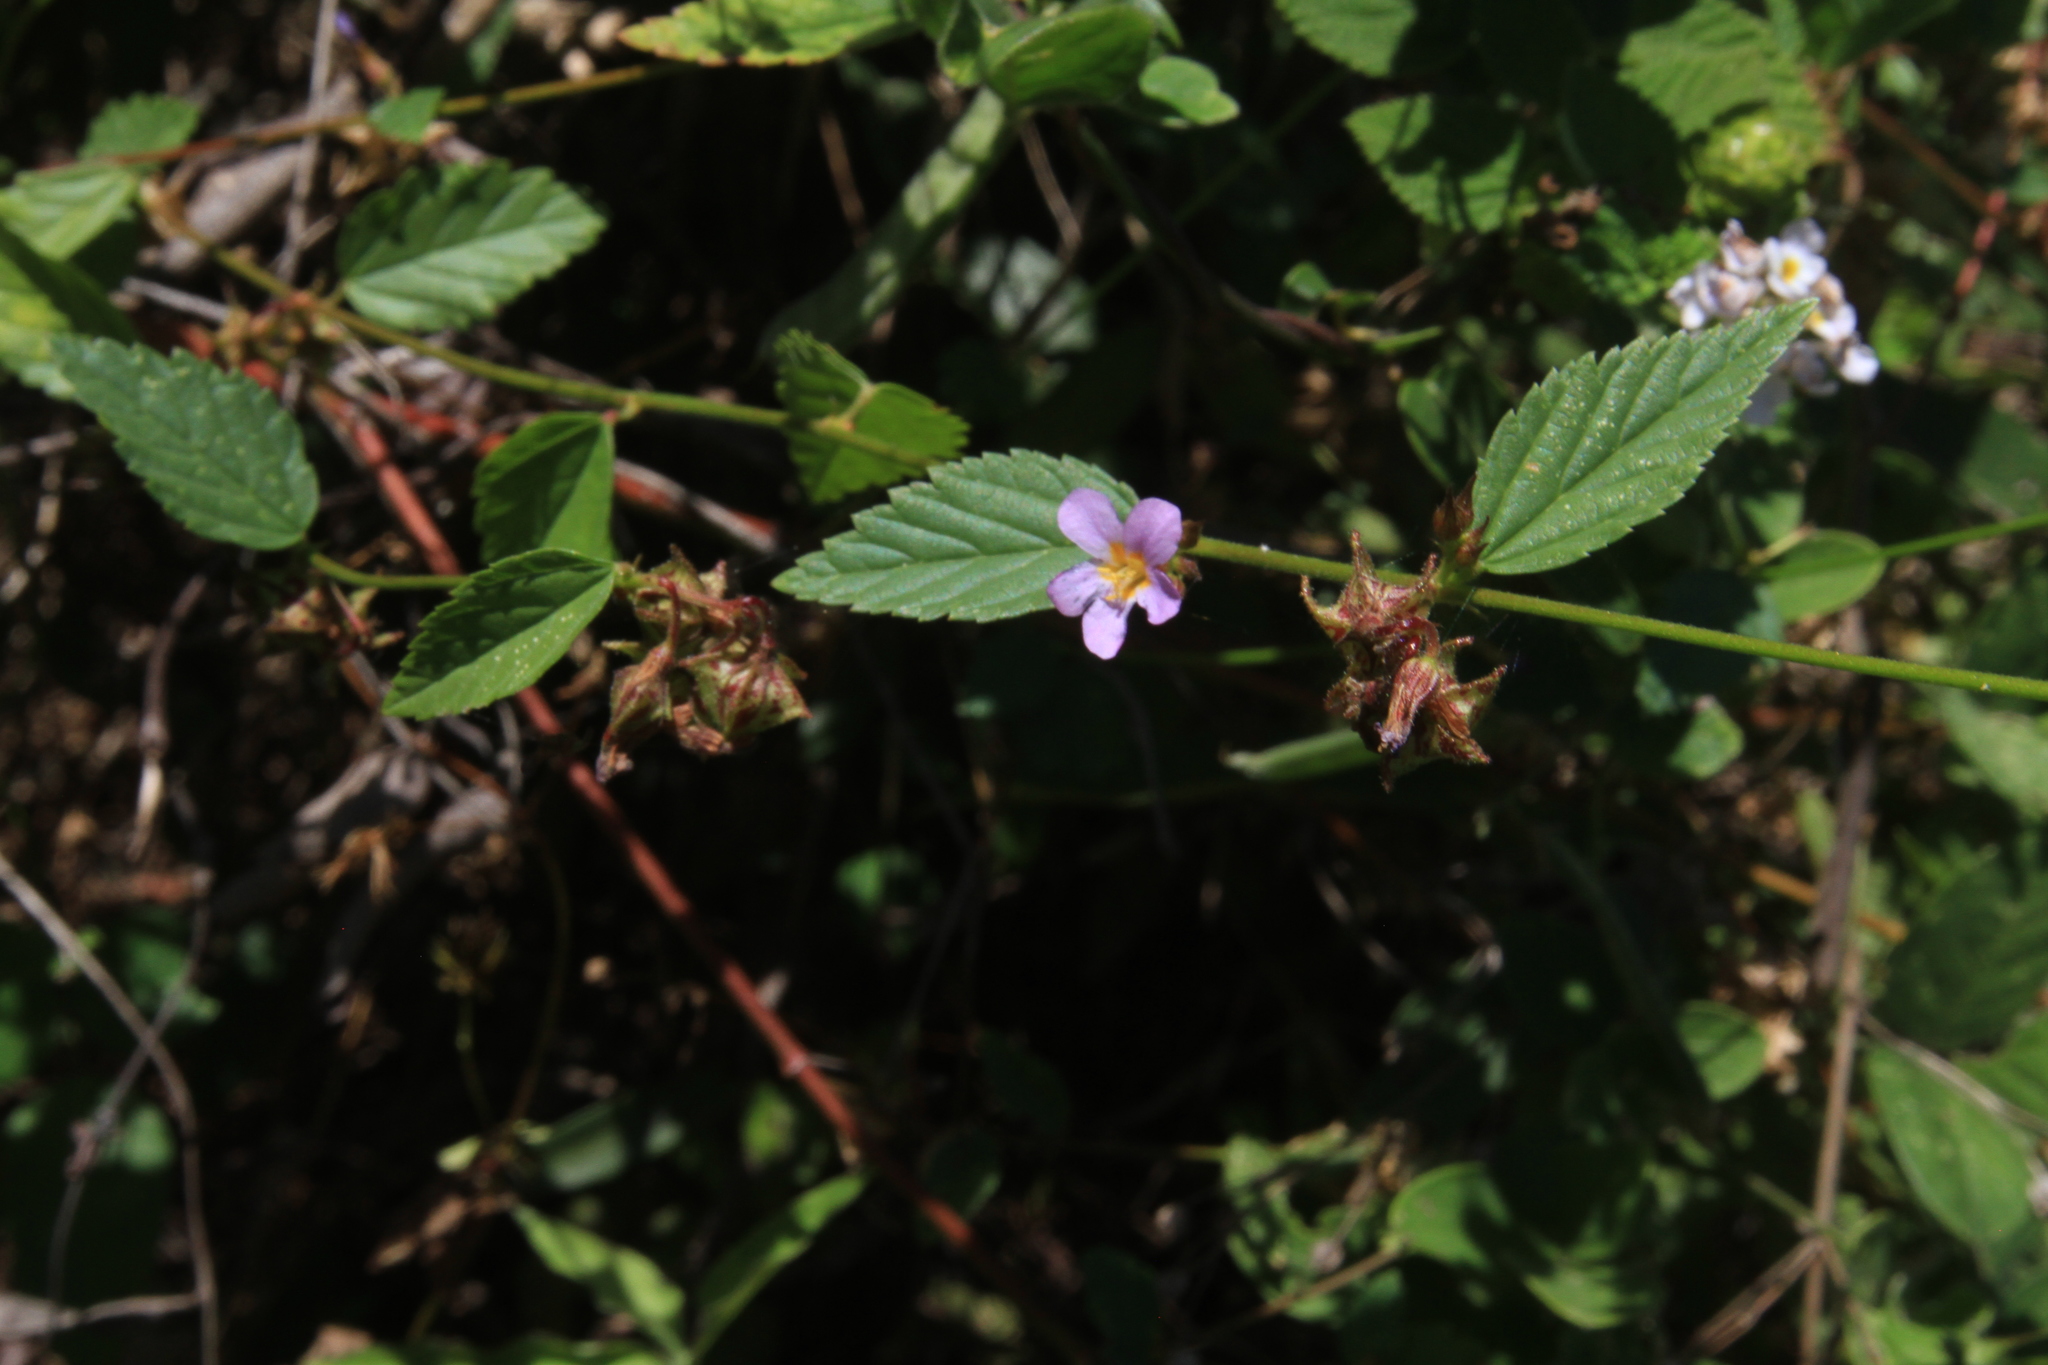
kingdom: Plantae
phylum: Tracheophyta
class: Magnoliopsida
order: Malvales
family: Malvaceae
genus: Melochia
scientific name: Melochia pyramidata
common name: Pyramidflower
